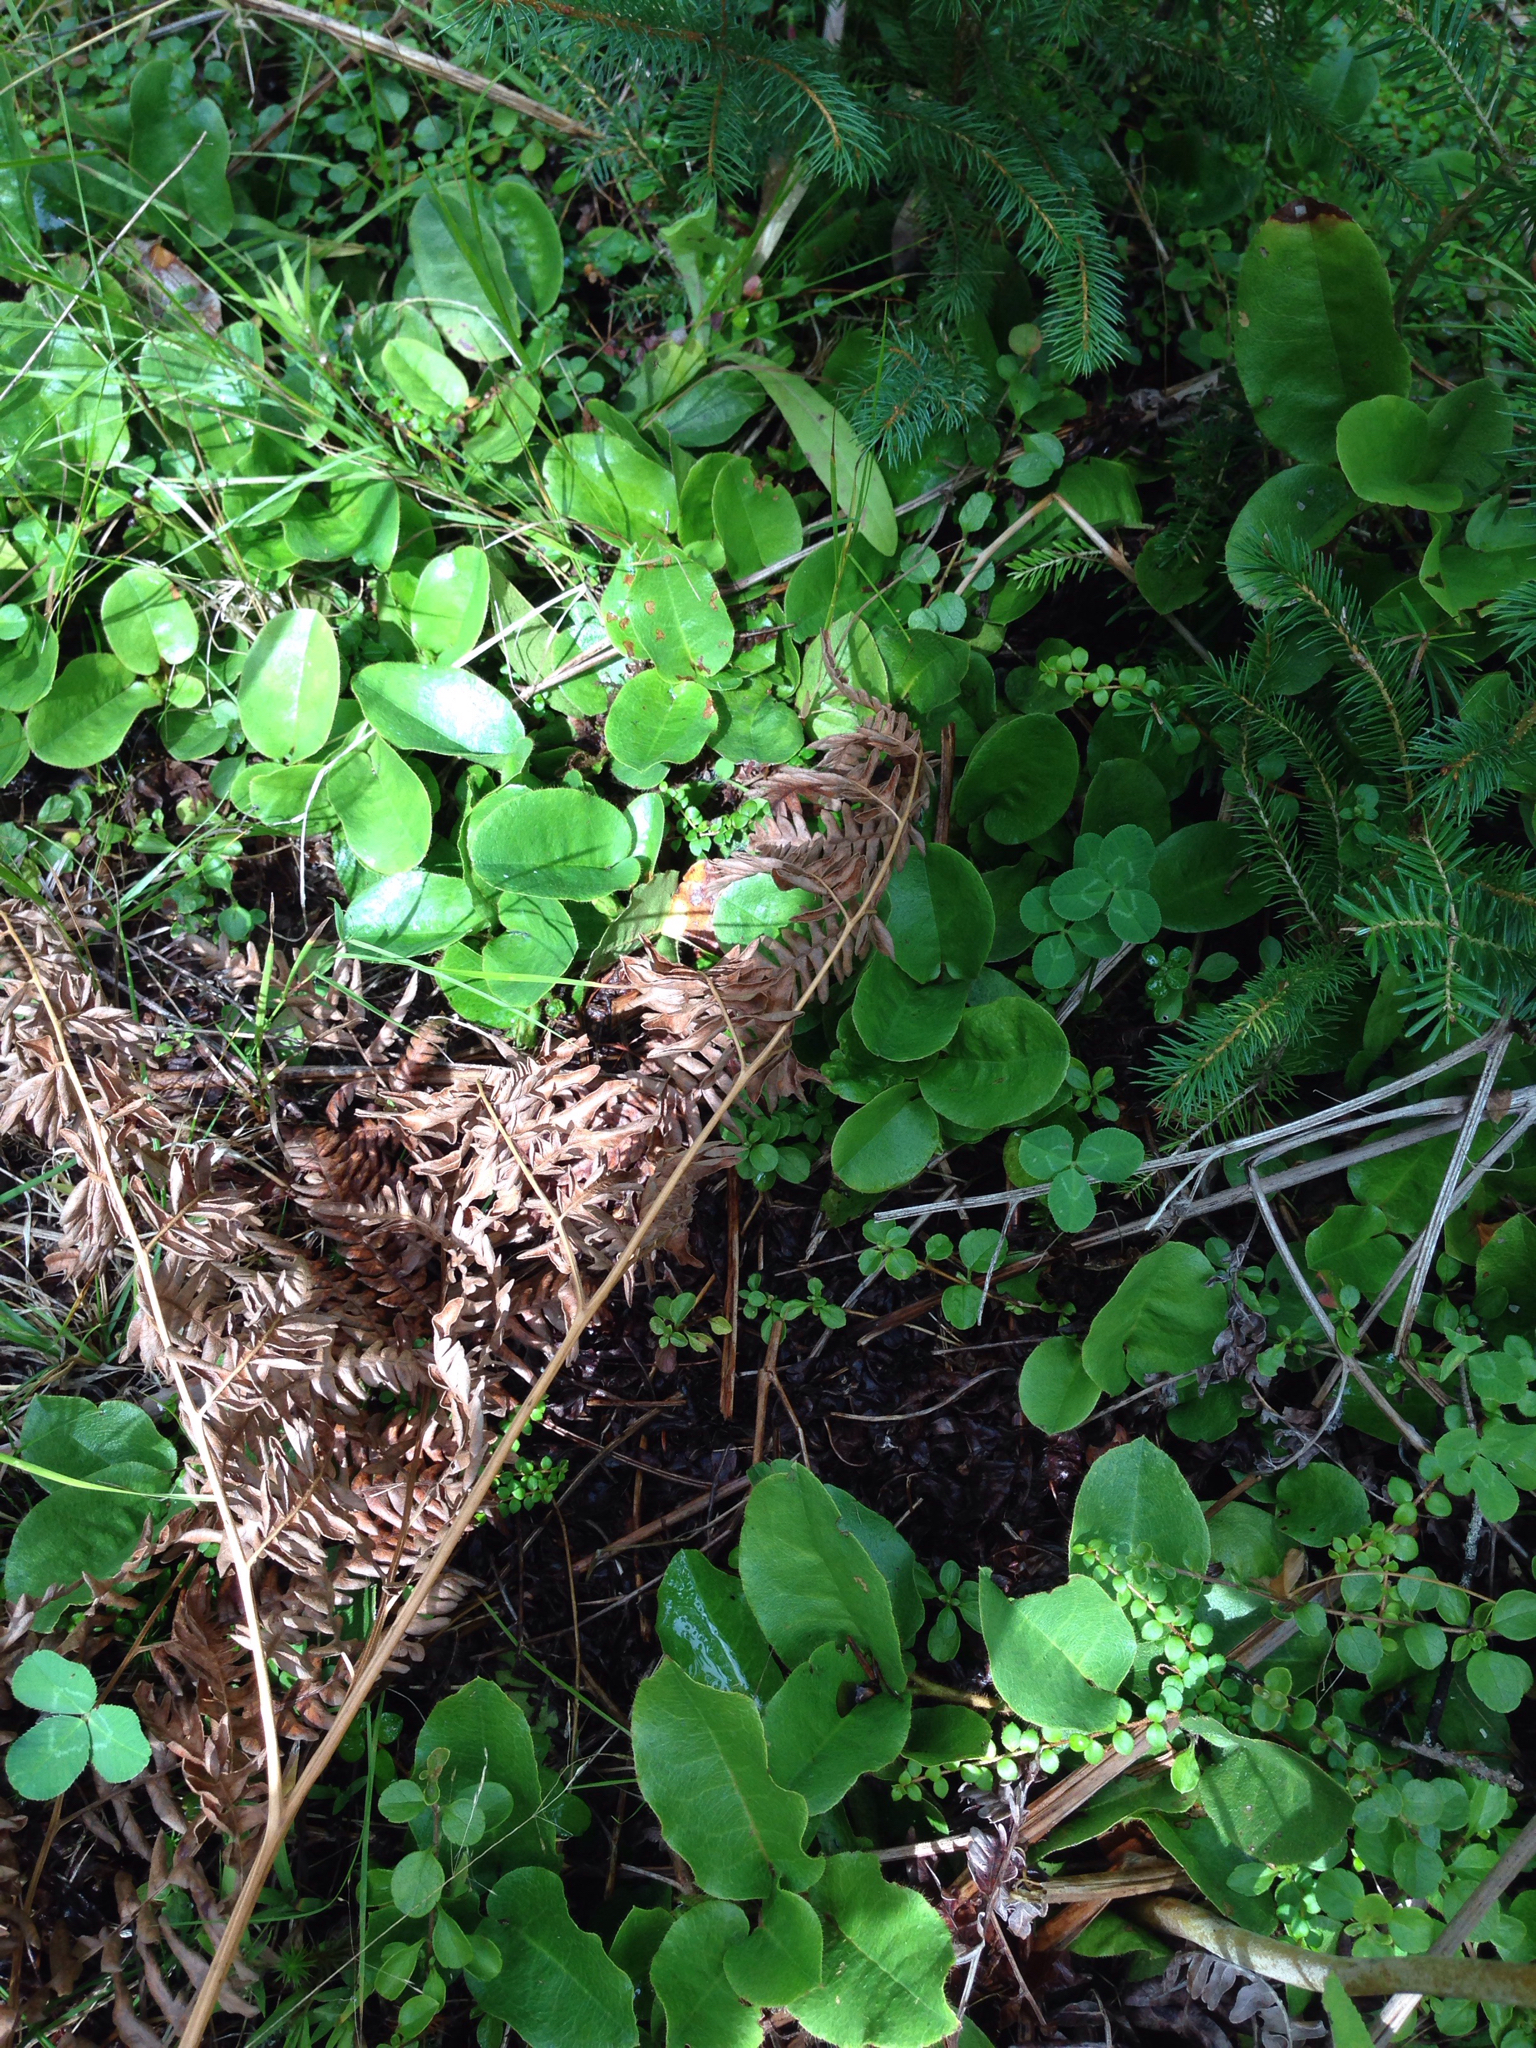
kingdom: Plantae
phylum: Tracheophyta
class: Magnoliopsida
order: Ericales
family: Ericaceae
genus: Epigaea
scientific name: Epigaea repens
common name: Gravelroot
